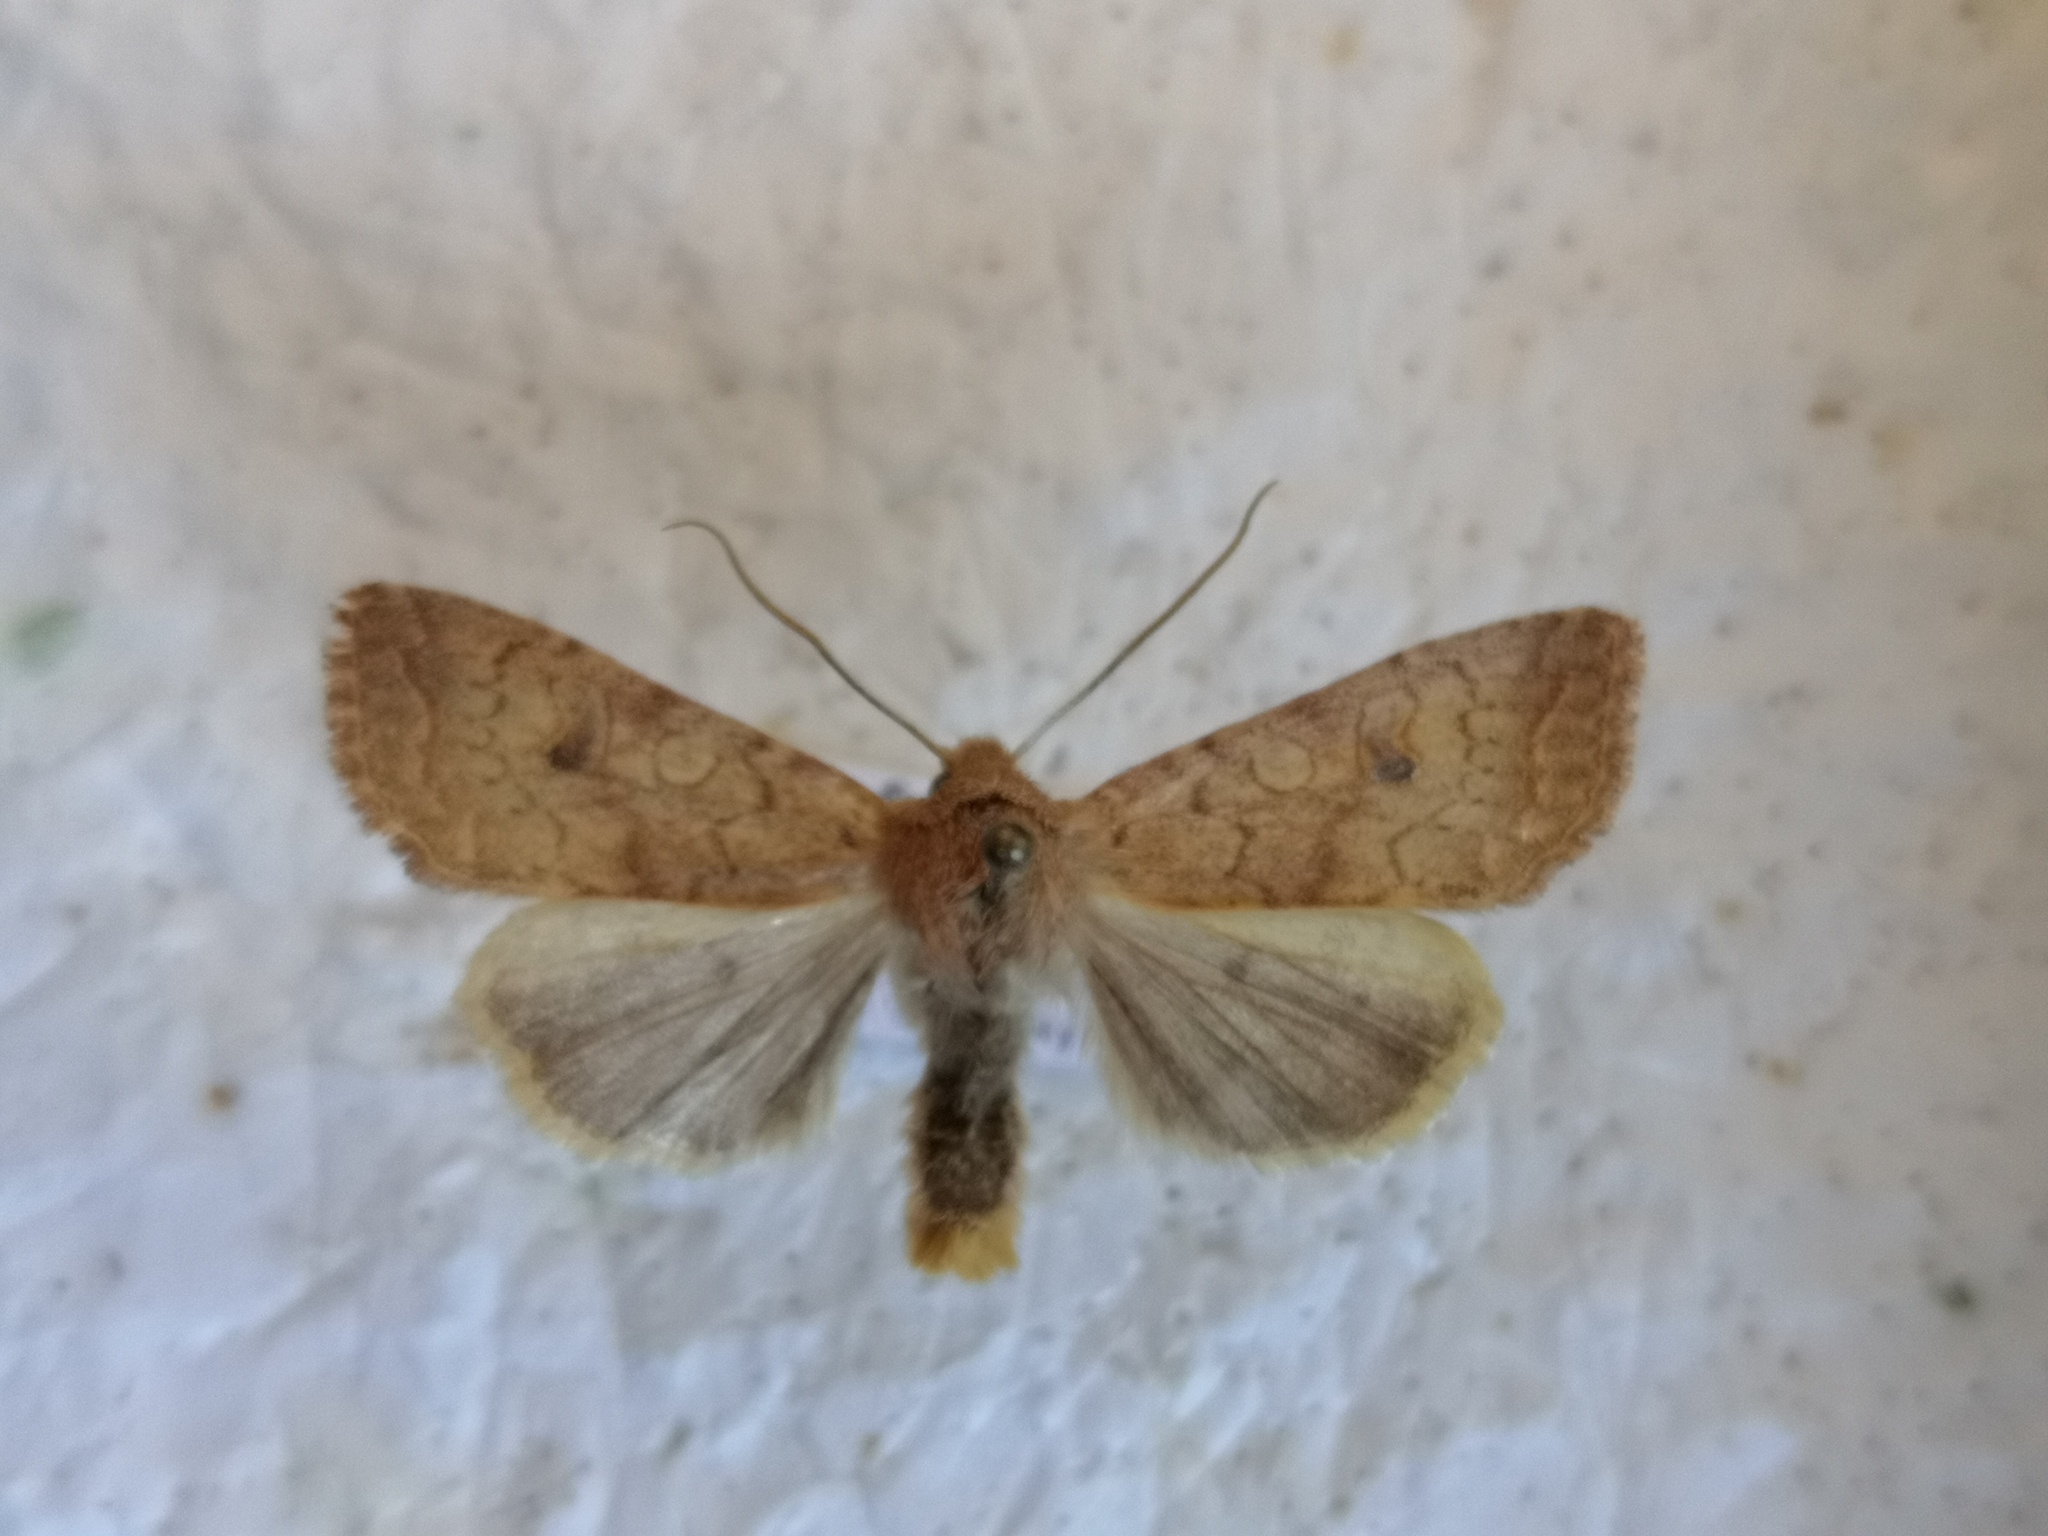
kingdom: Animalia
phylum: Arthropoda
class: Insecta
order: Lepidoptera
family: Noctuidae
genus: Sunira
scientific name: Sunira circellaris
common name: Brick
